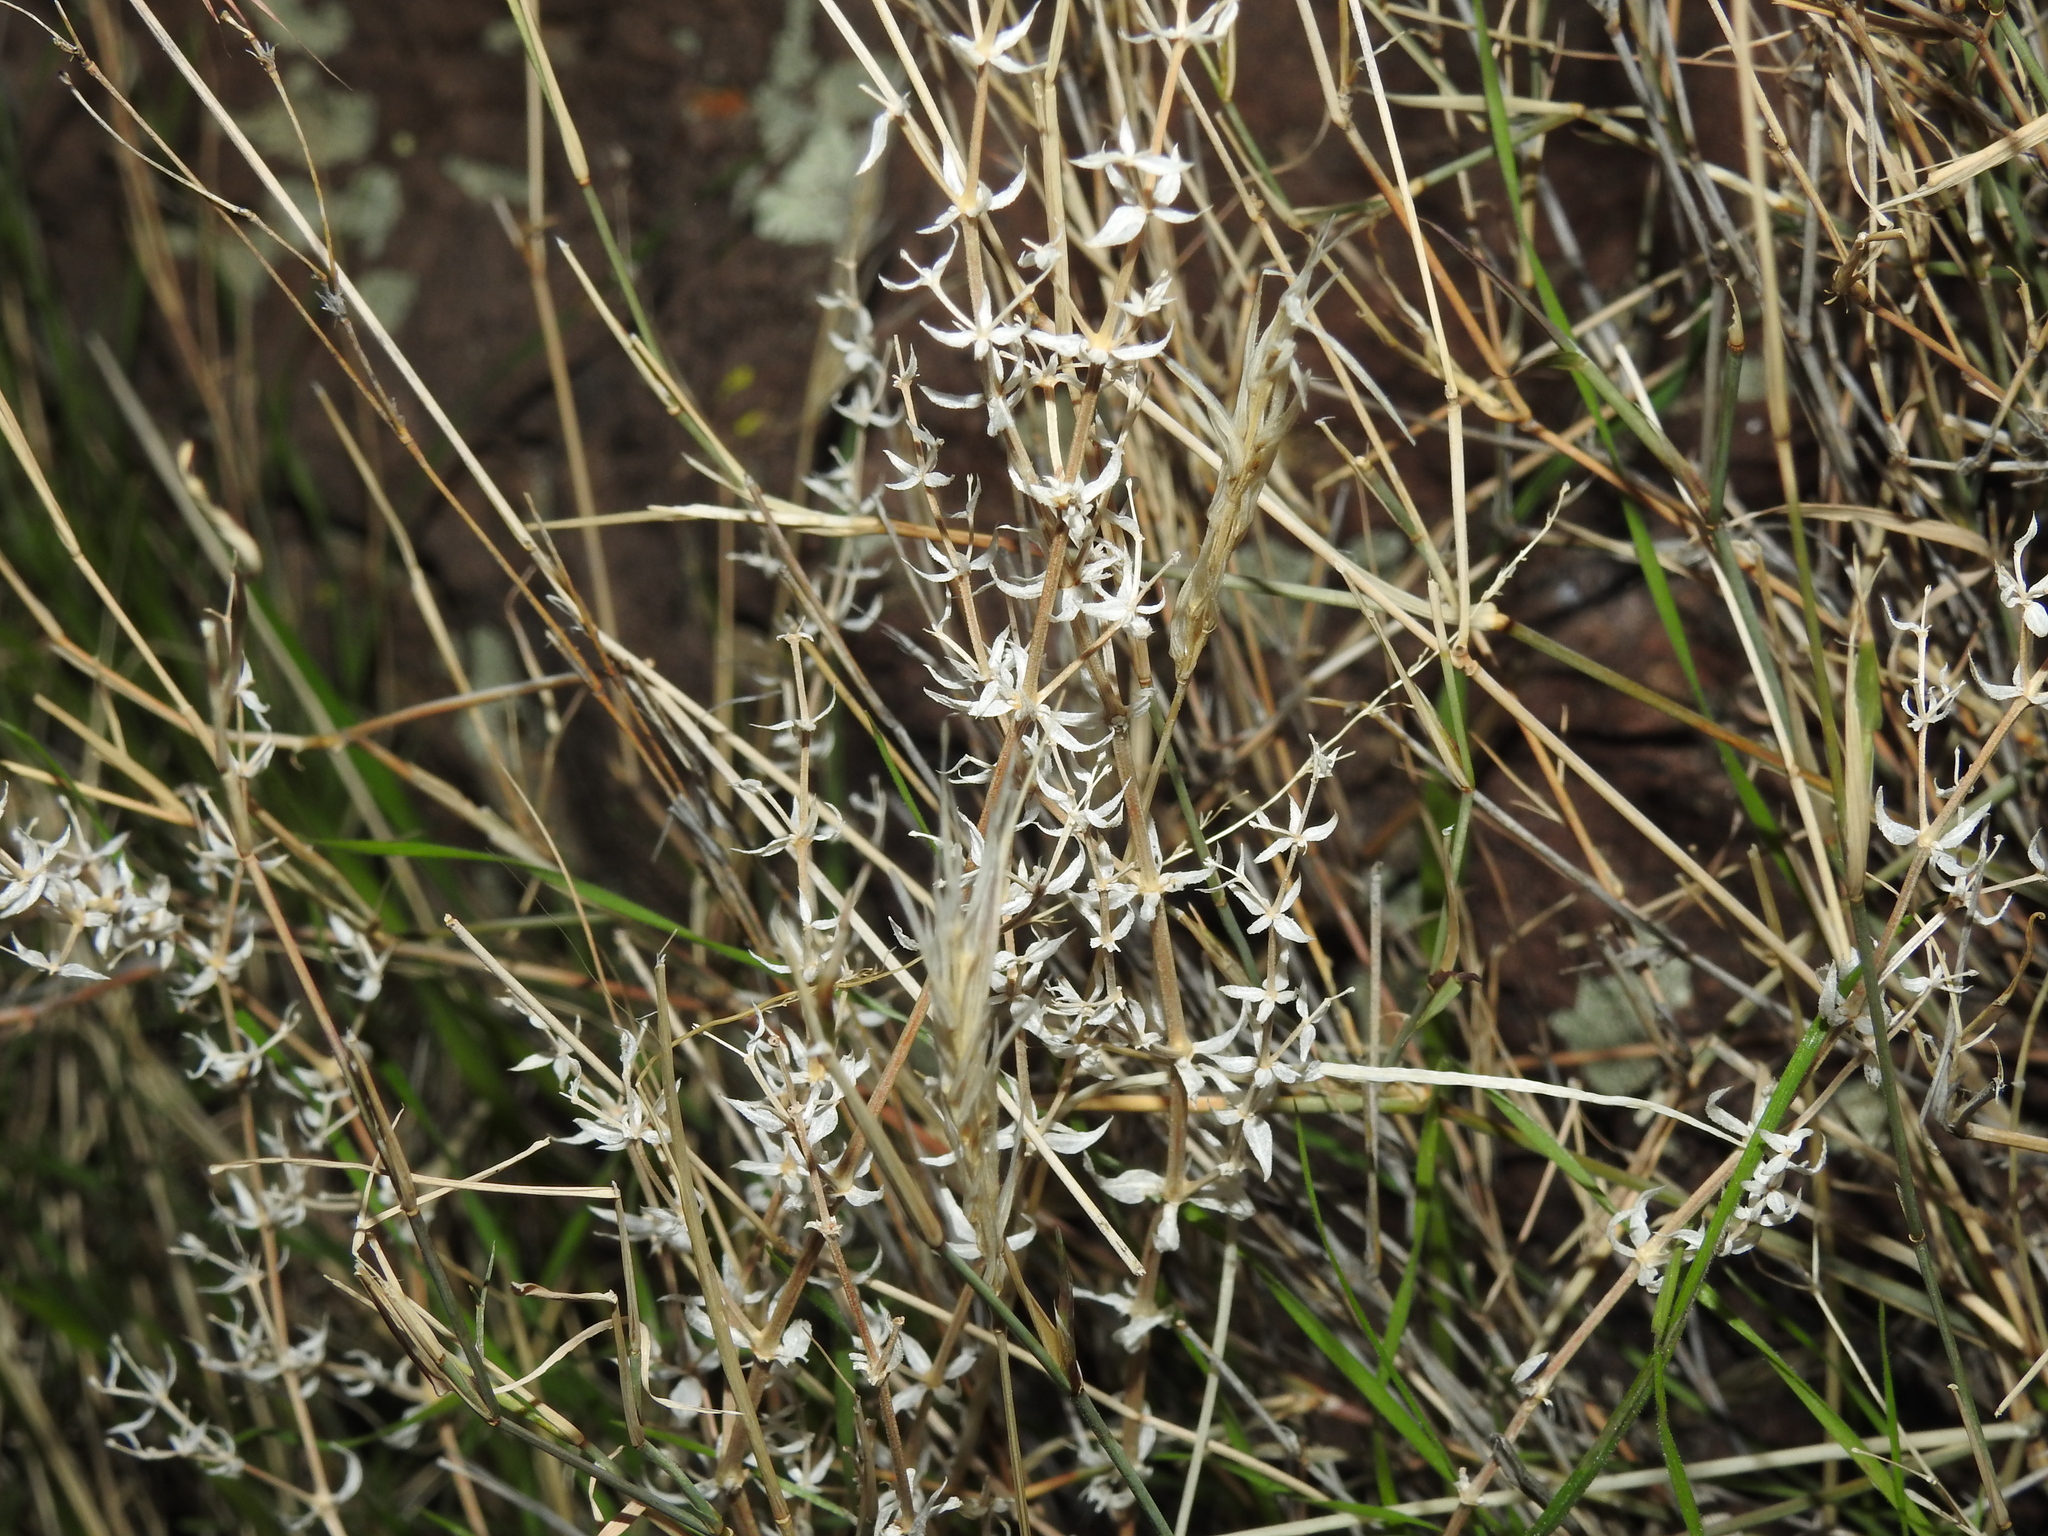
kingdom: Plantae
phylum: Tracheophyta
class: Magnoliopsida
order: Gentianales
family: Rubiaceae
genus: Galium
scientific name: Galium stellatum
